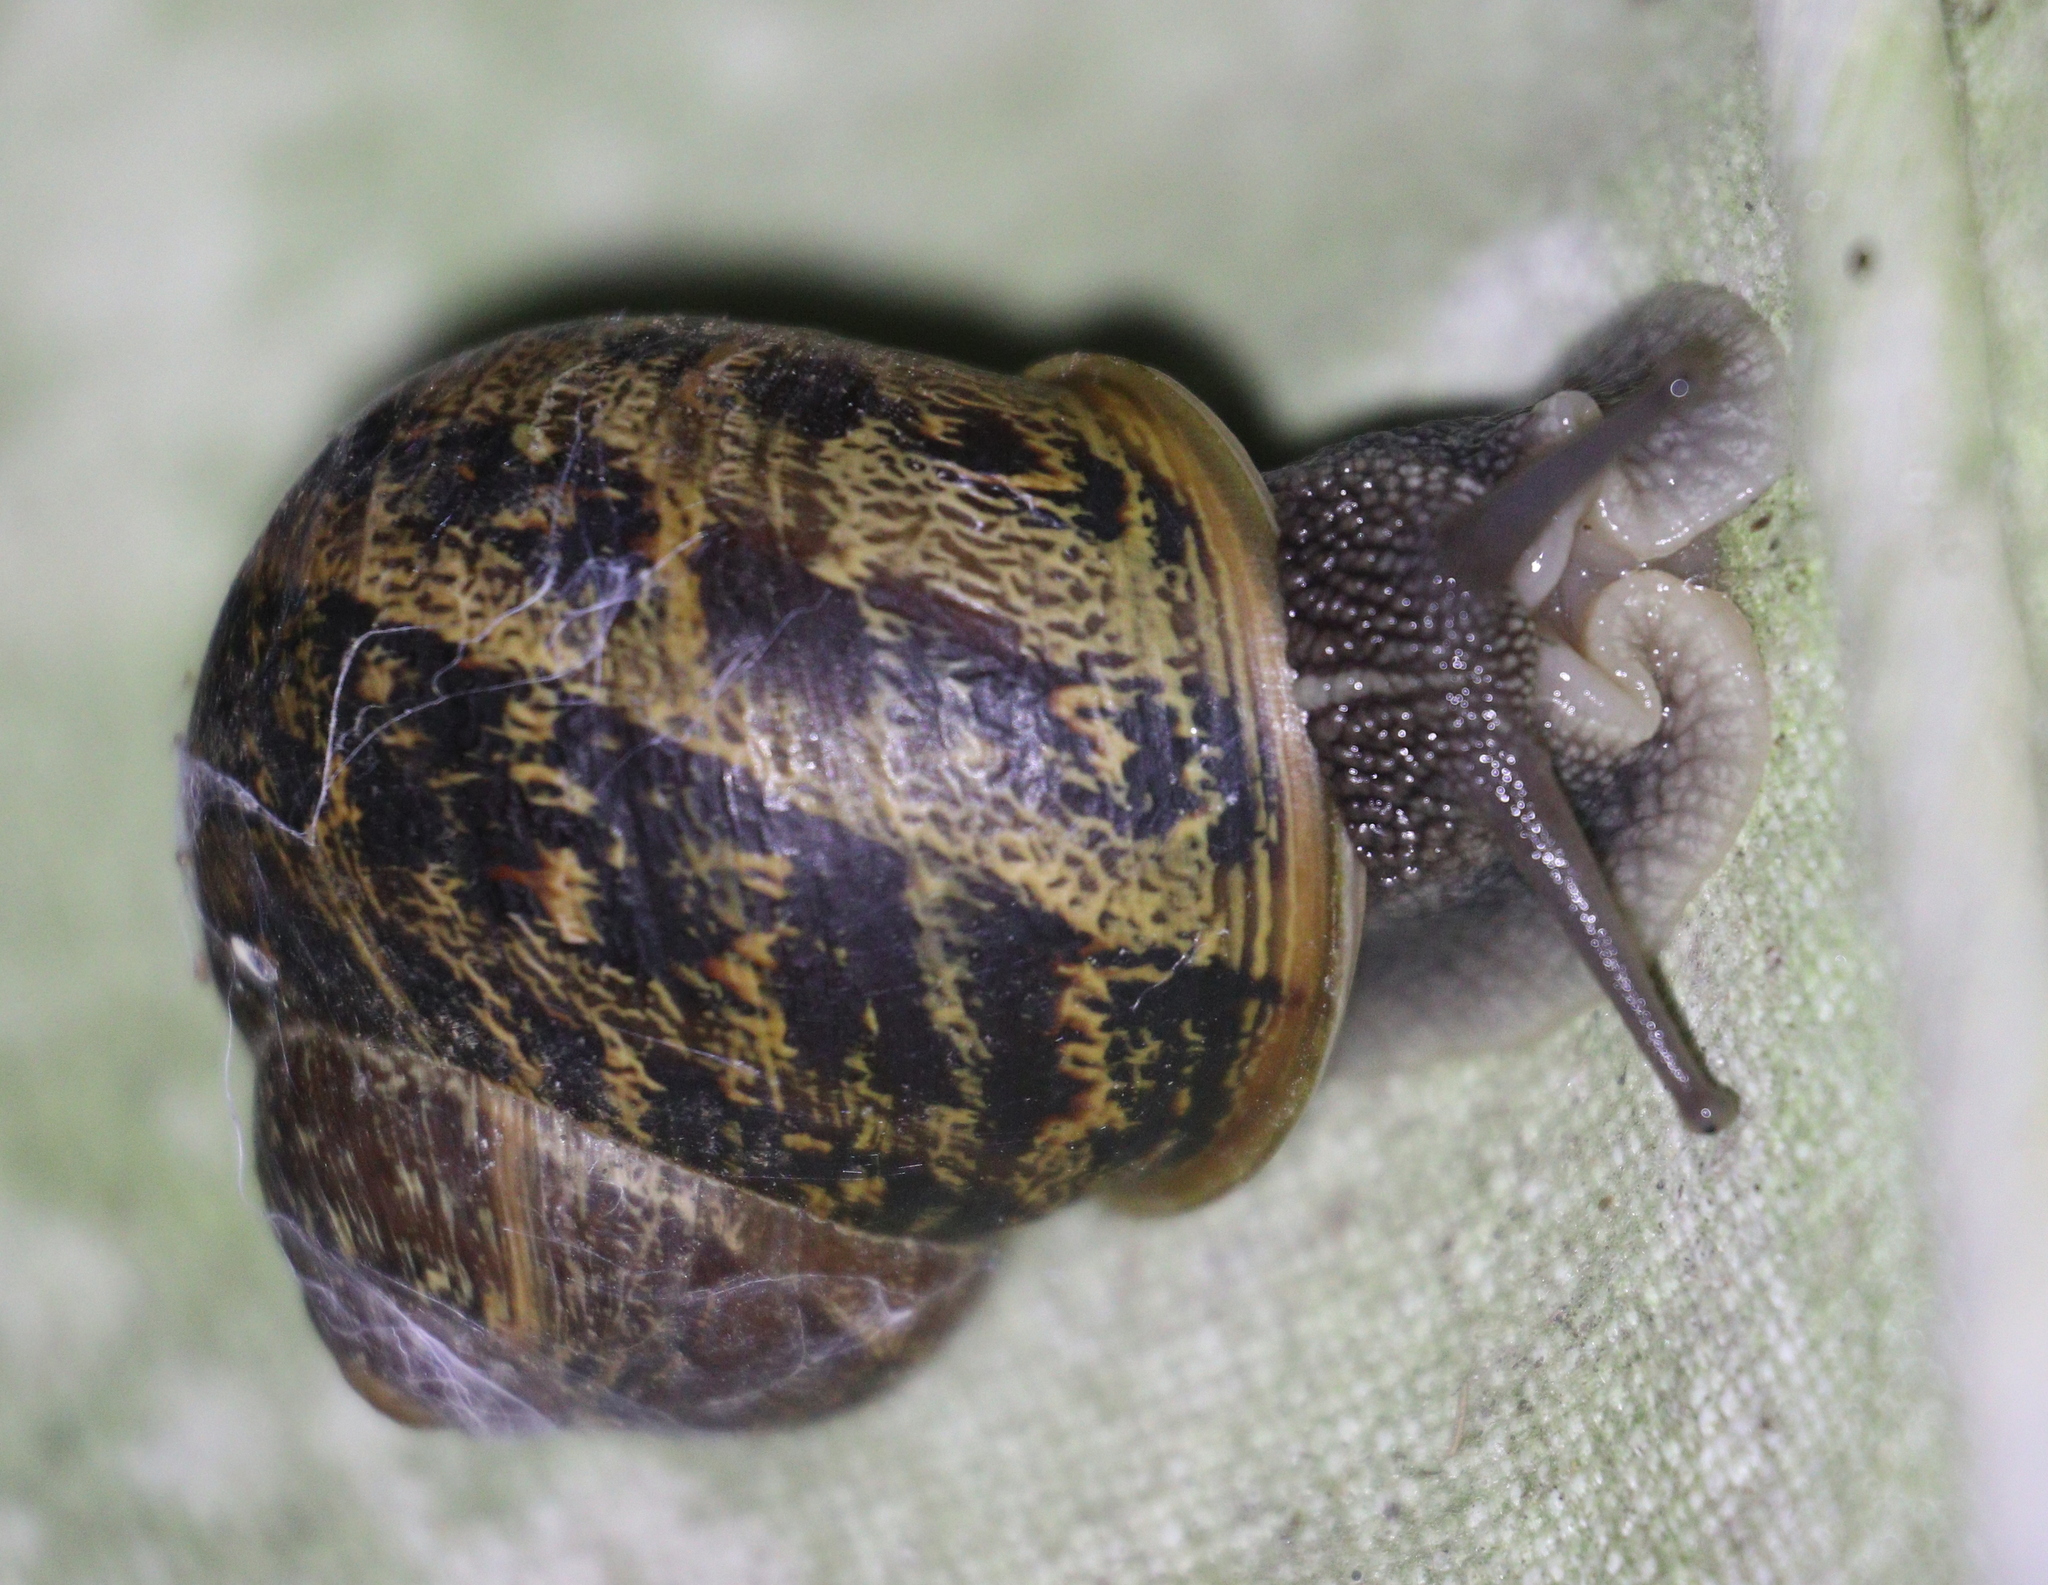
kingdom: Animalia
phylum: Mollusca
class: Gastropoda
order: Stylommatophora
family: Helicidae
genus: Cornu
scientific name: Cornu aspersum
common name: Brown garden snail
